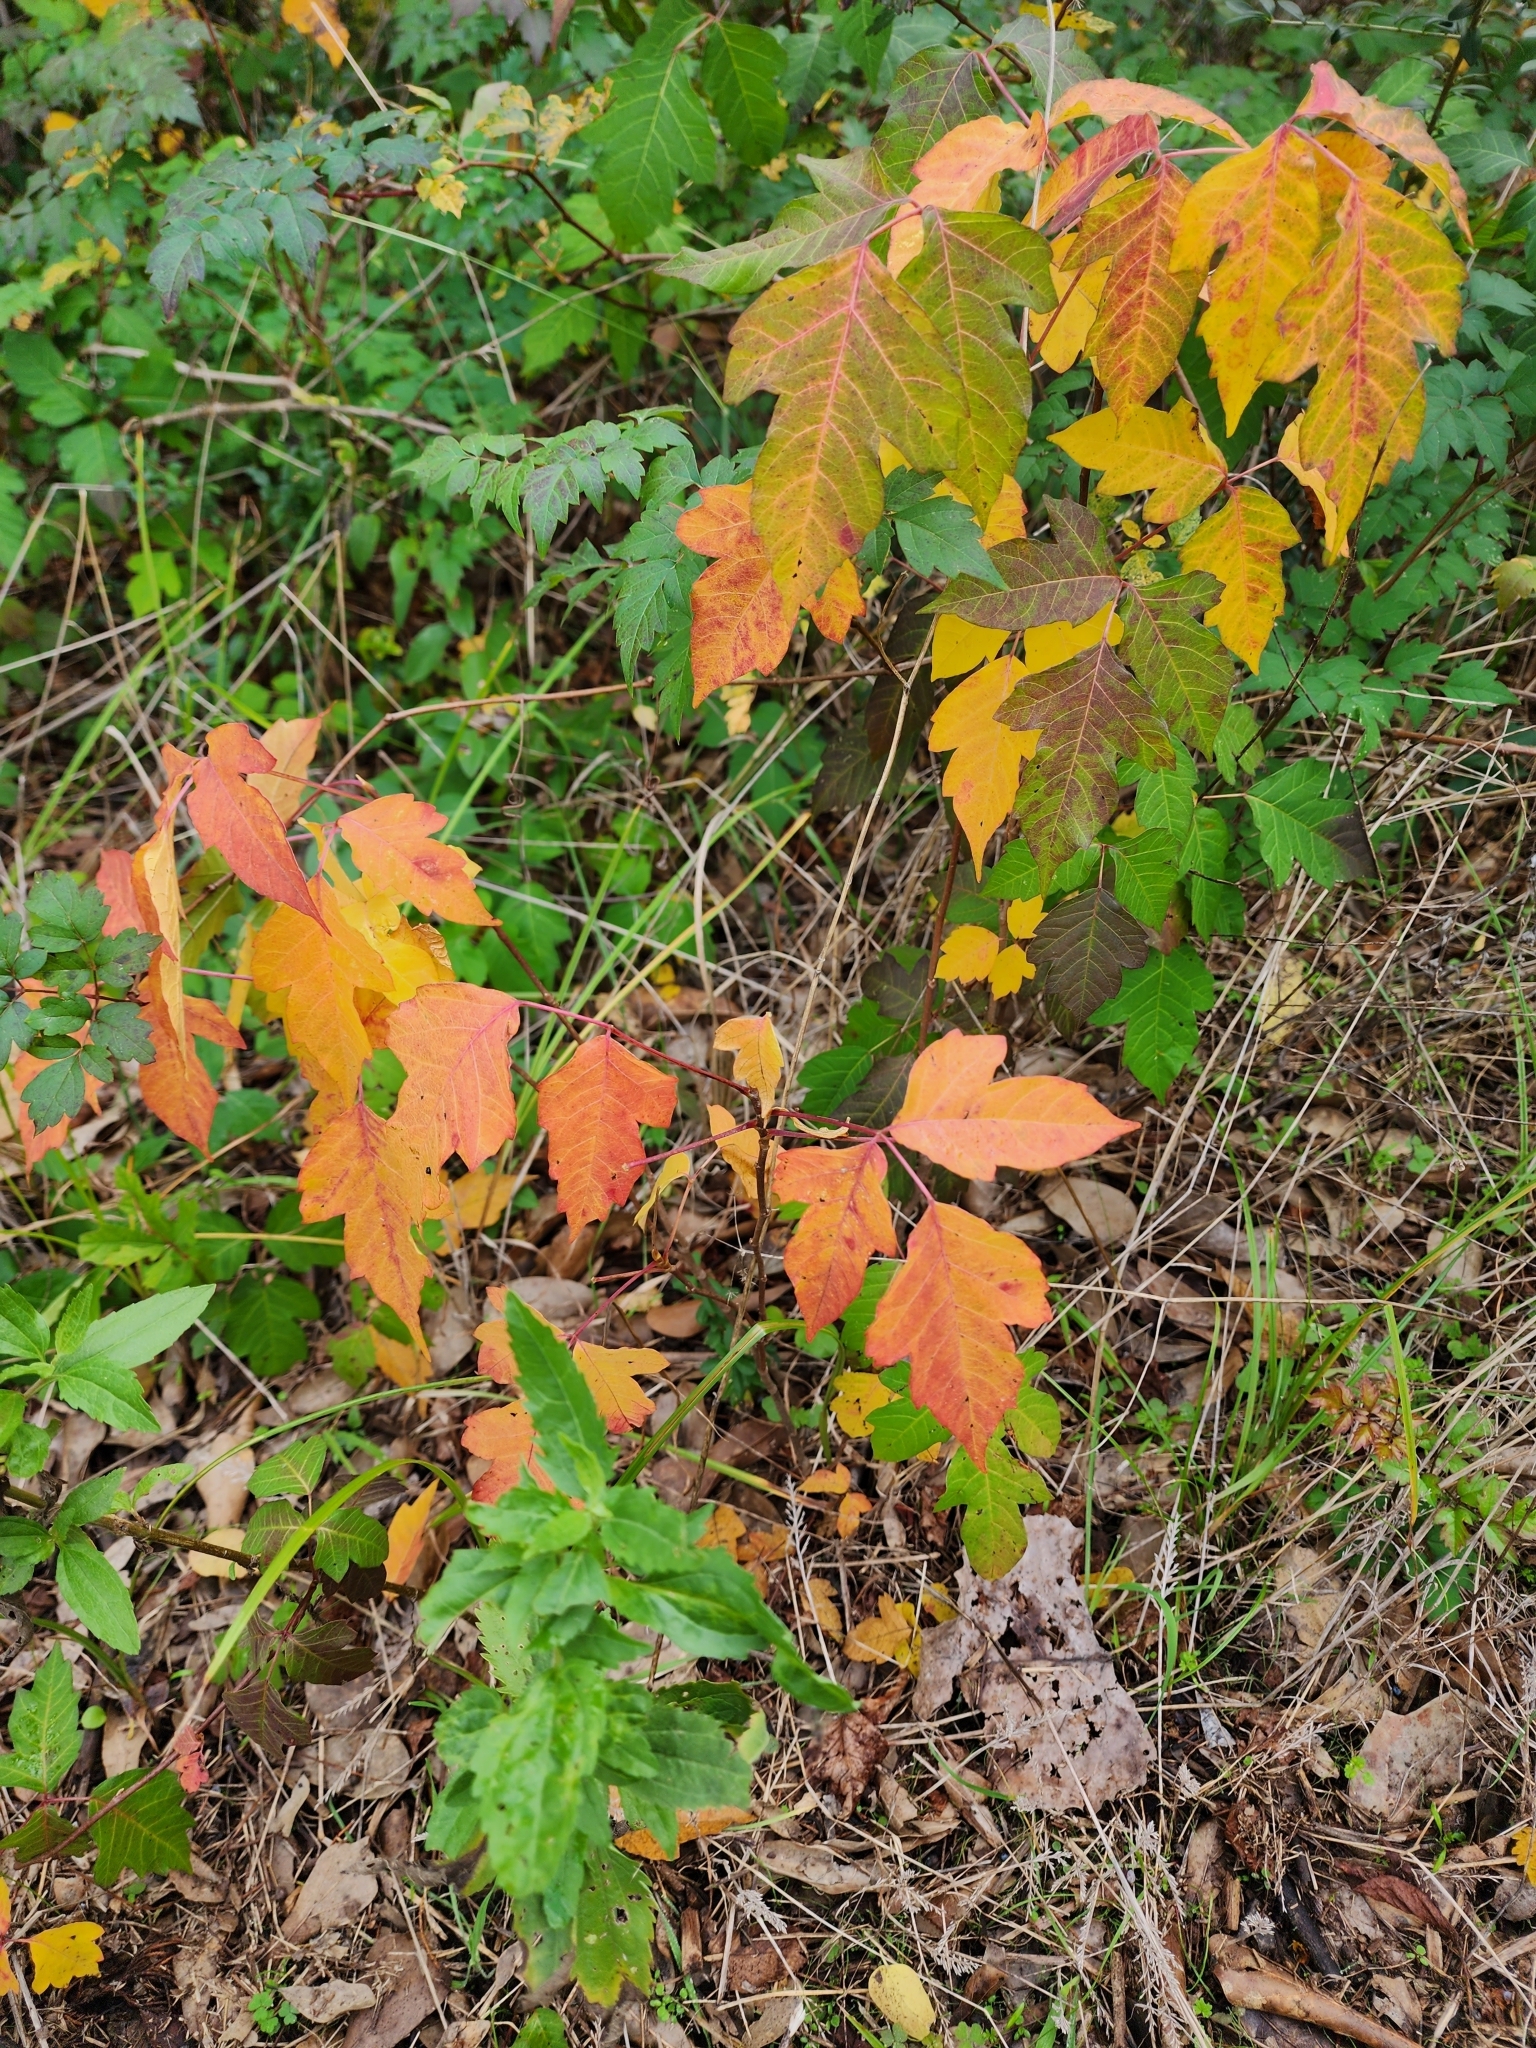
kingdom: Plantae
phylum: Tracheophyta
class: Magnoliopsida
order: Sapindales
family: Anacardiaceae
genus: Toxicodendron
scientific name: Toxicodendron radicans
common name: Poison ivy
